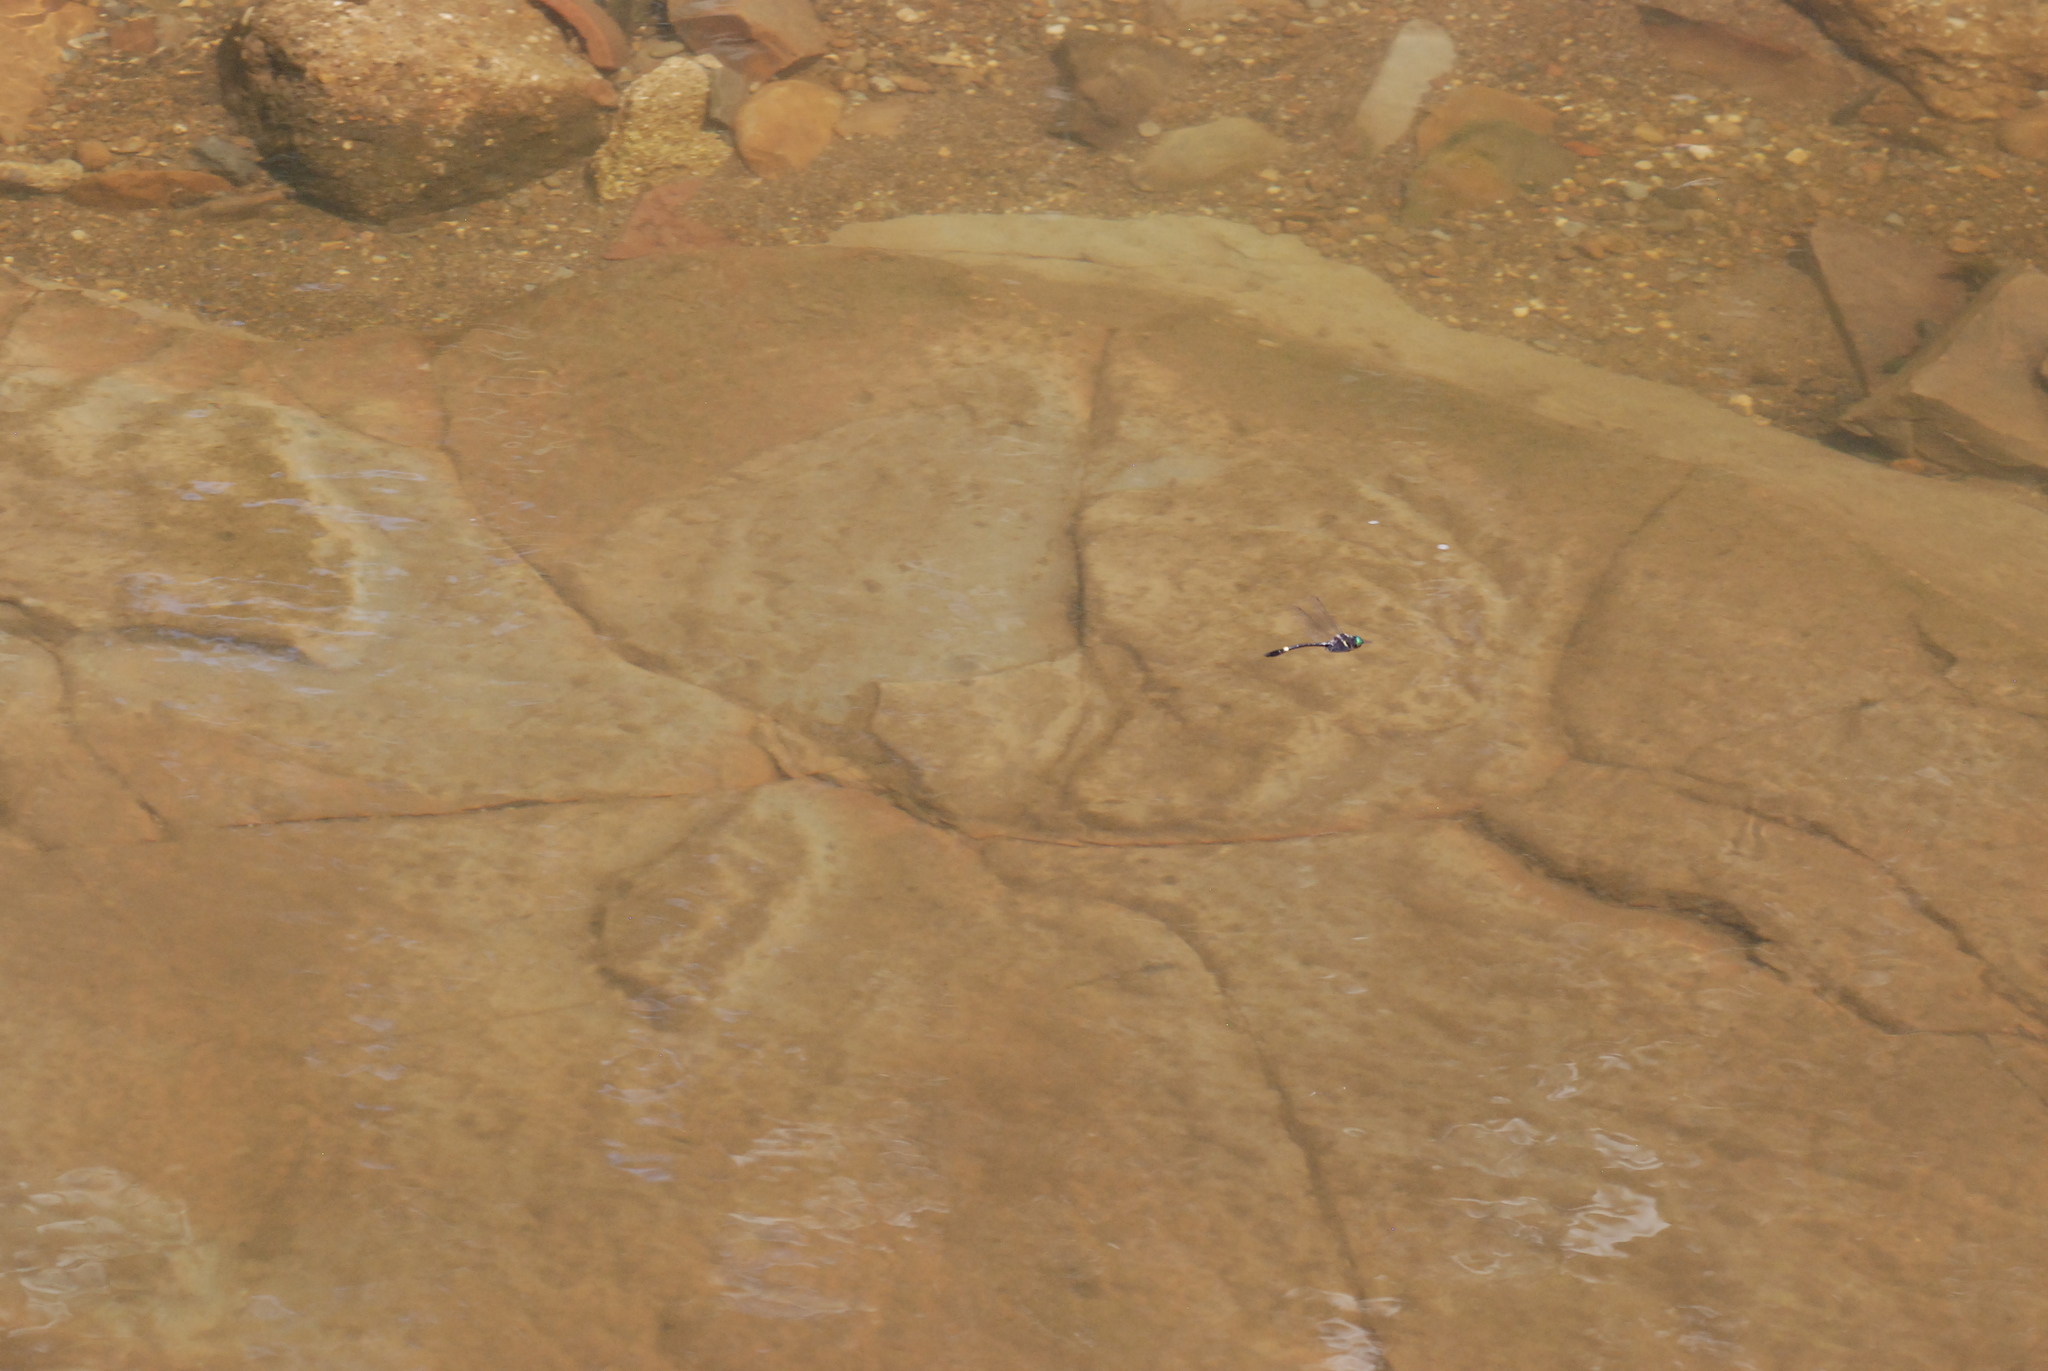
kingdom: Animalia
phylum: Arthropoda
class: Insecta
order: Odonata
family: Macromiidae
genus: Macromia
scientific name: Macromia illinoiensis
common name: Swift river cruiser
